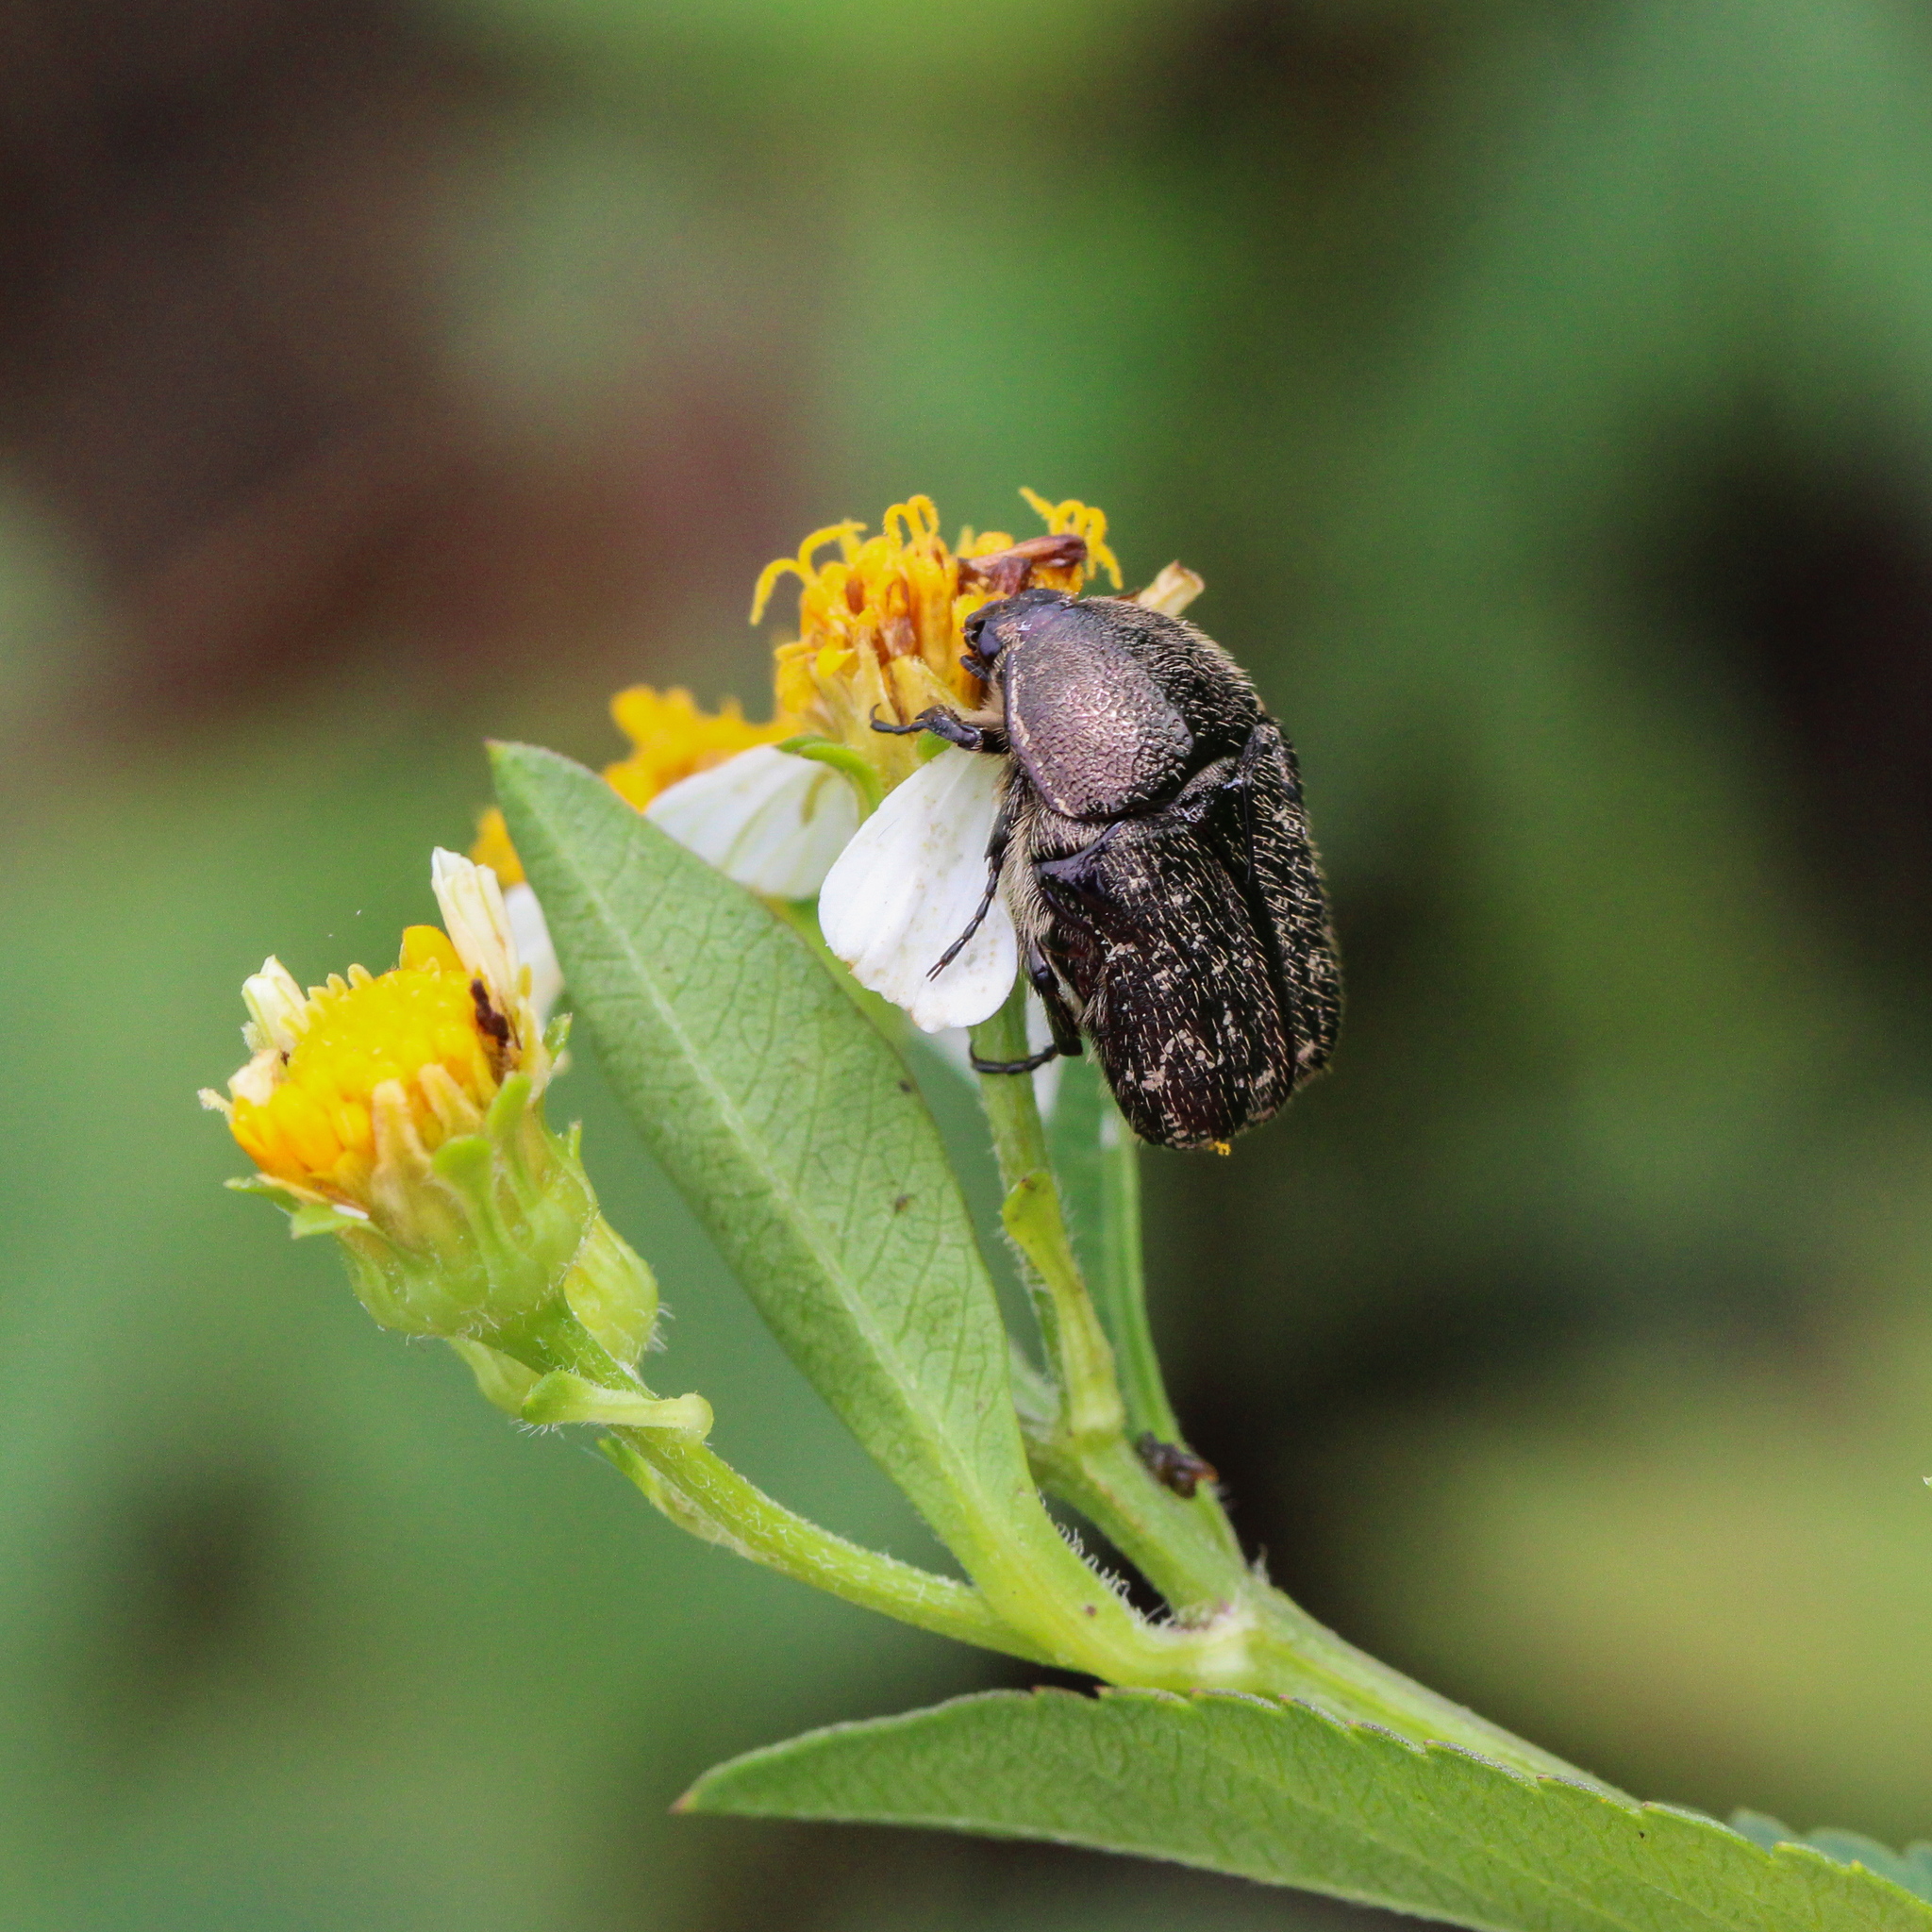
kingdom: Animalia
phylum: Arthropoda
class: Insecta
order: Coleoptera
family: Scarabaeidae
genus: Euphoria
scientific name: Euphoria sepulcralis
